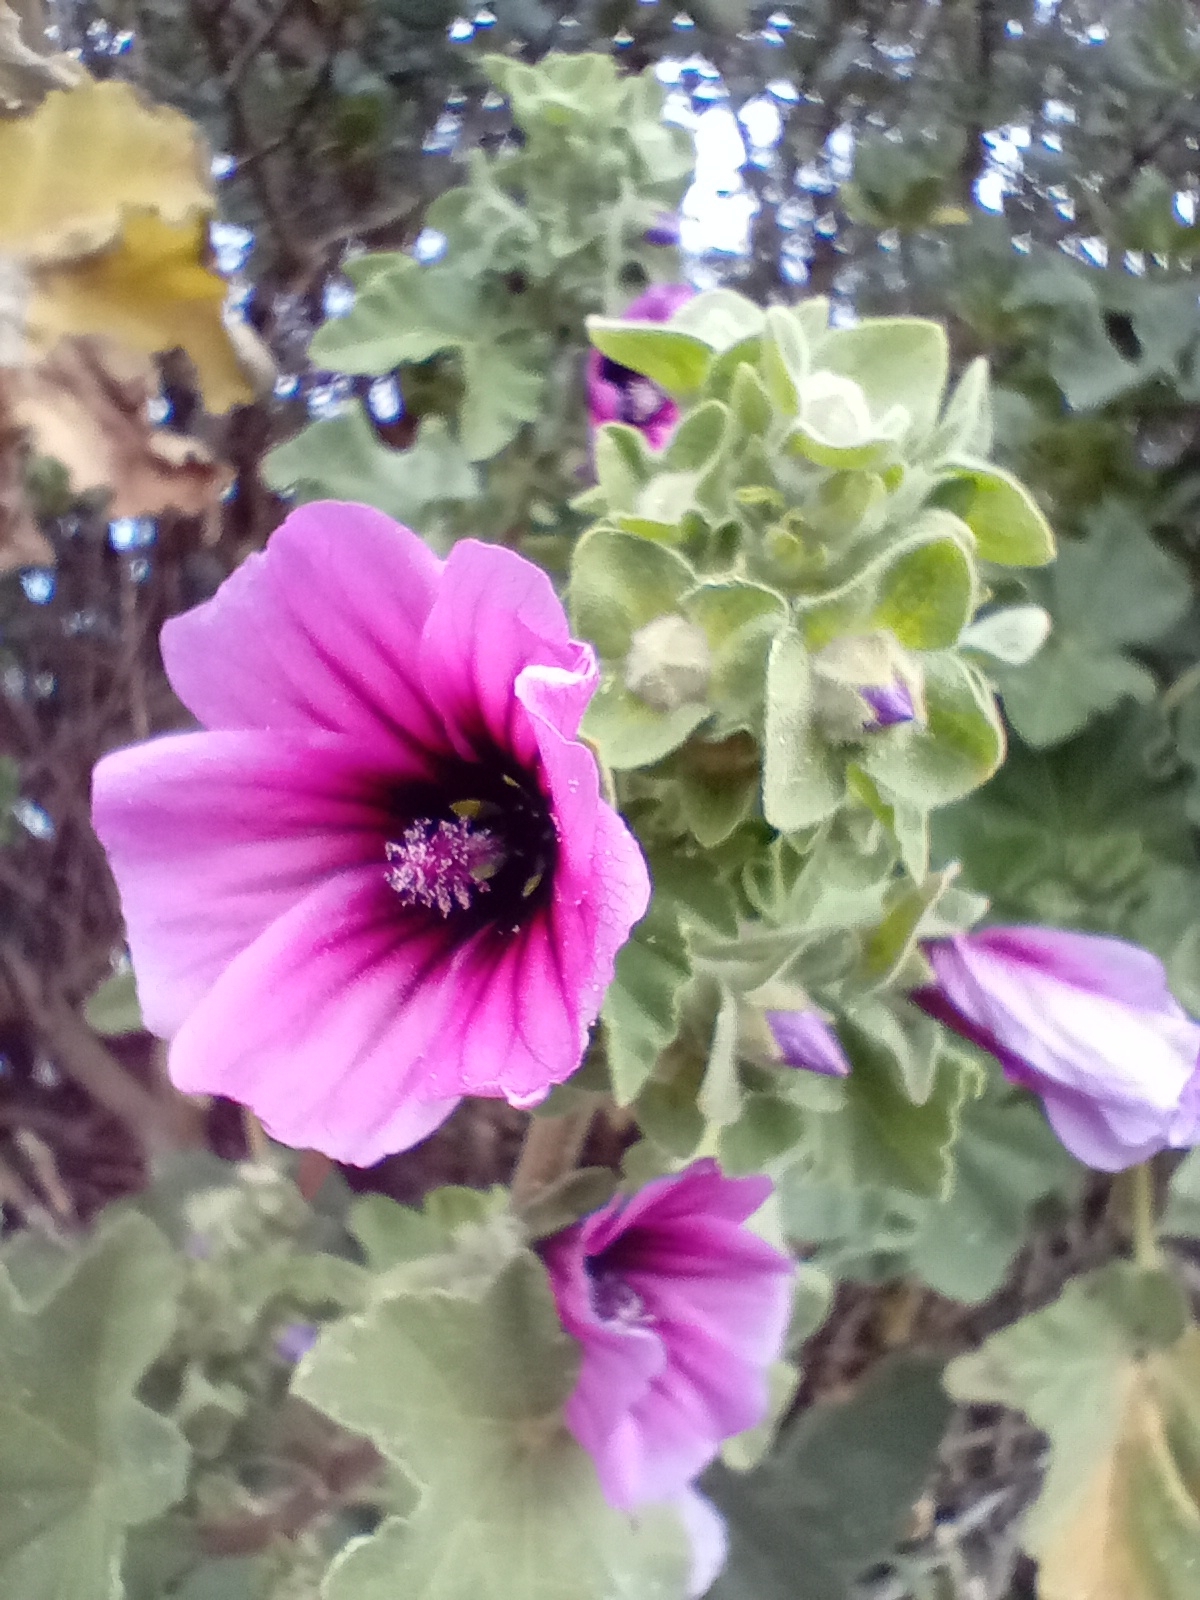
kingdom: Plantae
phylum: Tracheophyta
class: Magnoliopsida
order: Malvales
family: Malvaceae
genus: Malva
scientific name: Malva arborea
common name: Tree mallow
